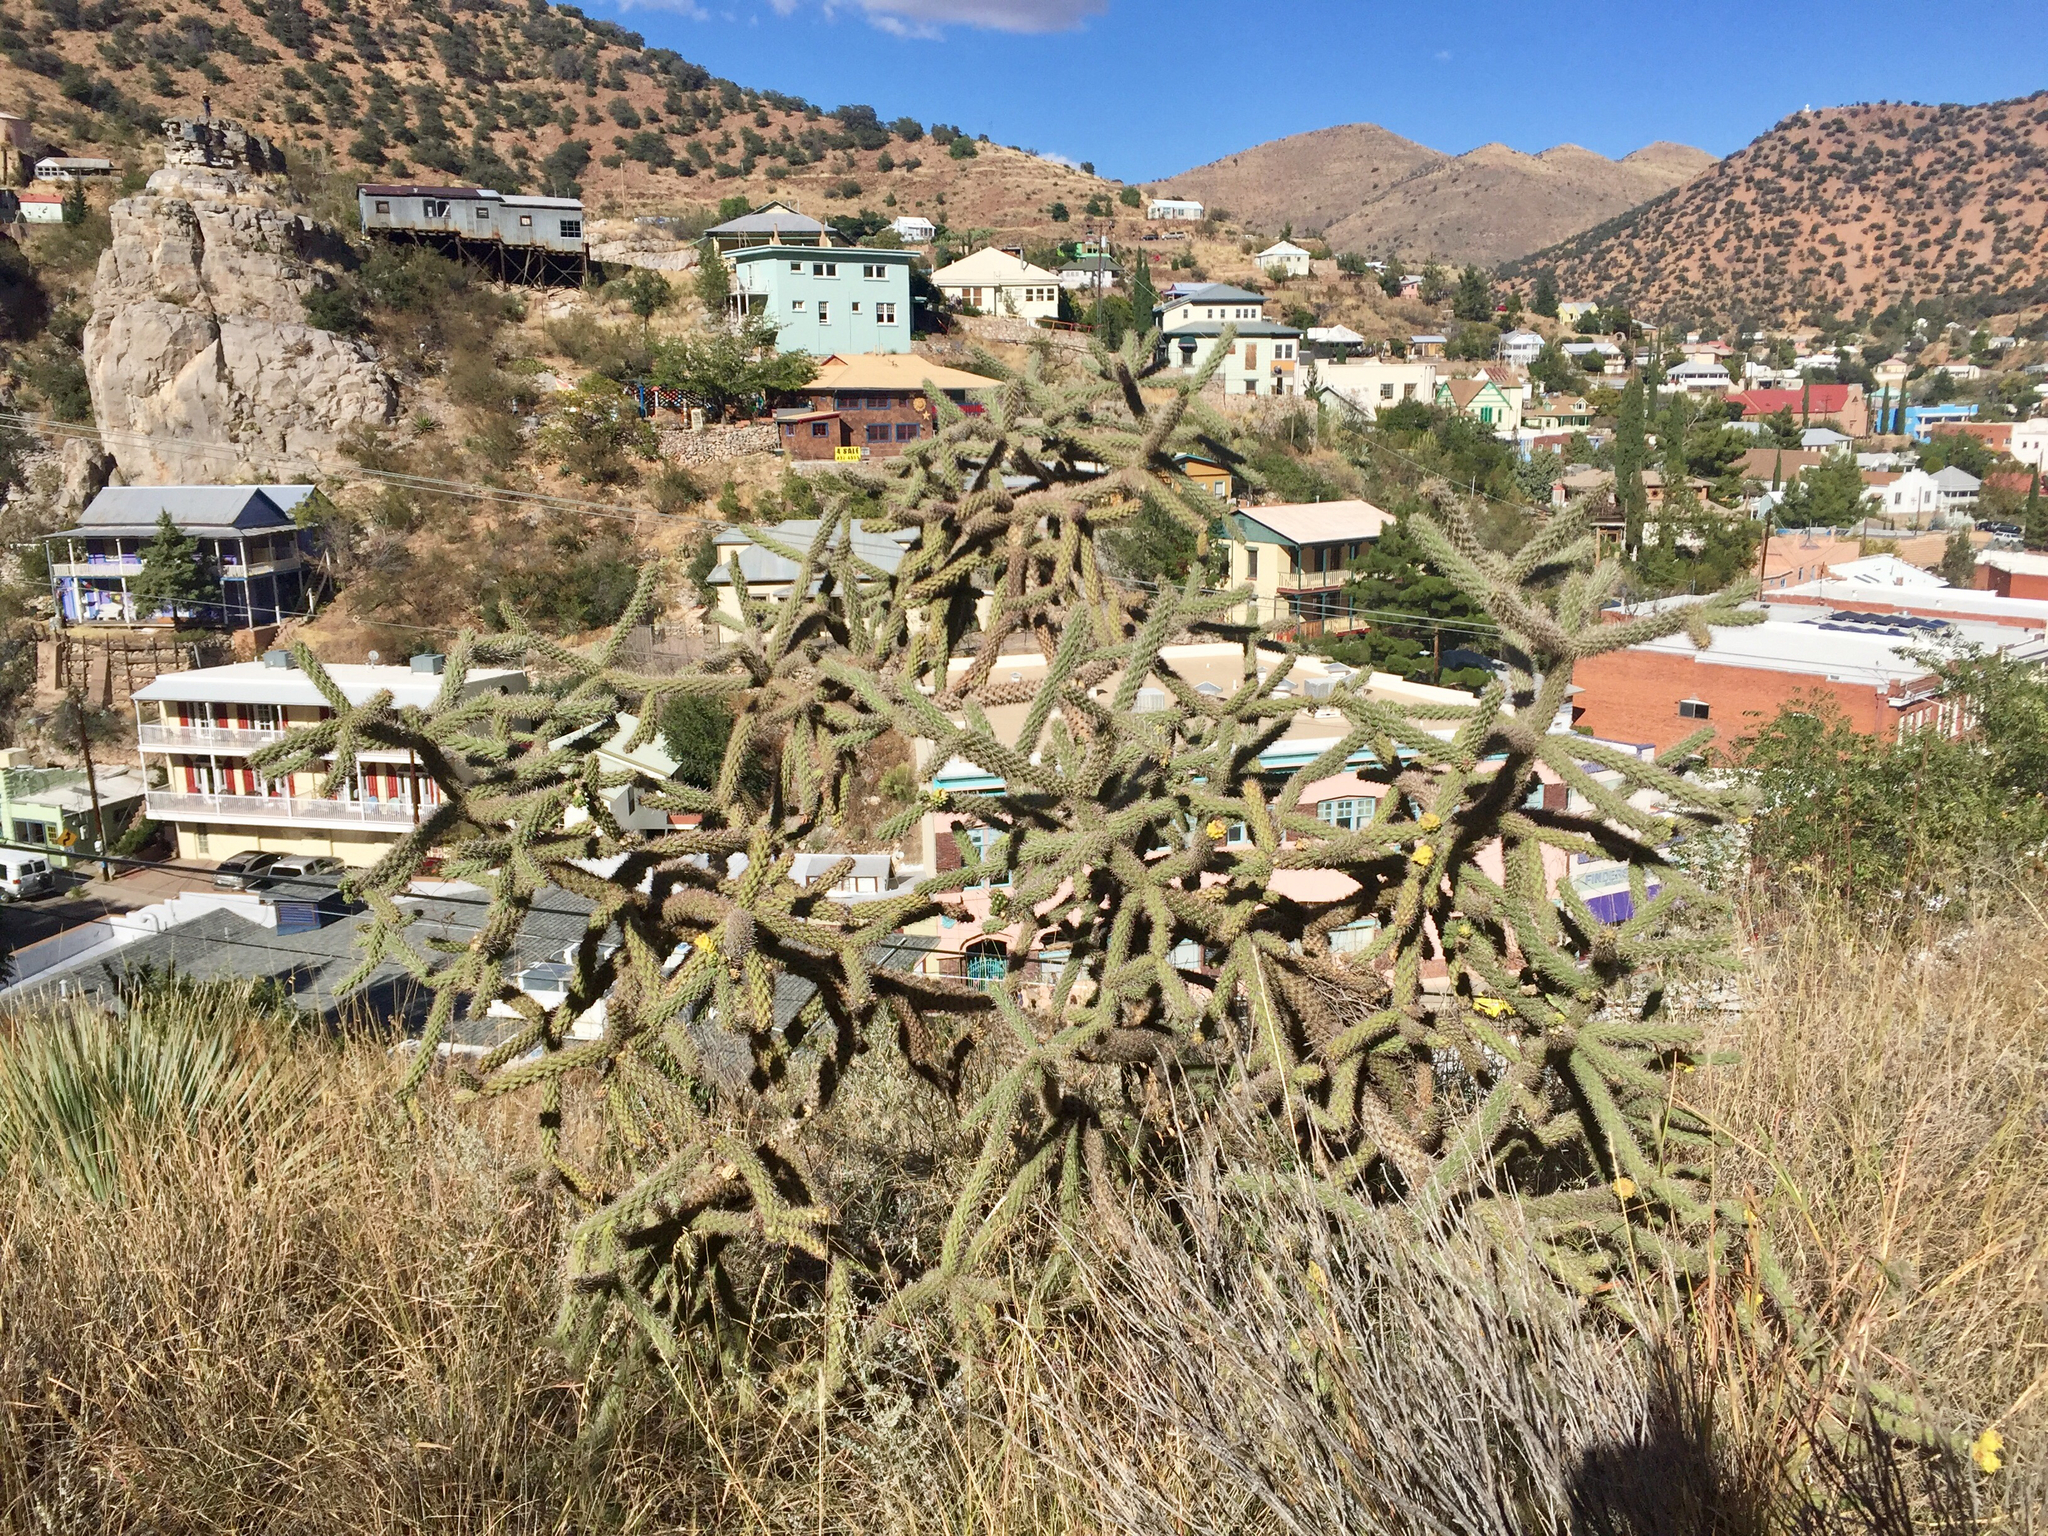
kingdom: Plantae
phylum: Tracheophyta
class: Magnoliopsida
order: Caryophyllales
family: Cactaceae
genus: Cylindropuntia
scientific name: Cylindropuntia imbricata
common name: Candelabrum cactus
